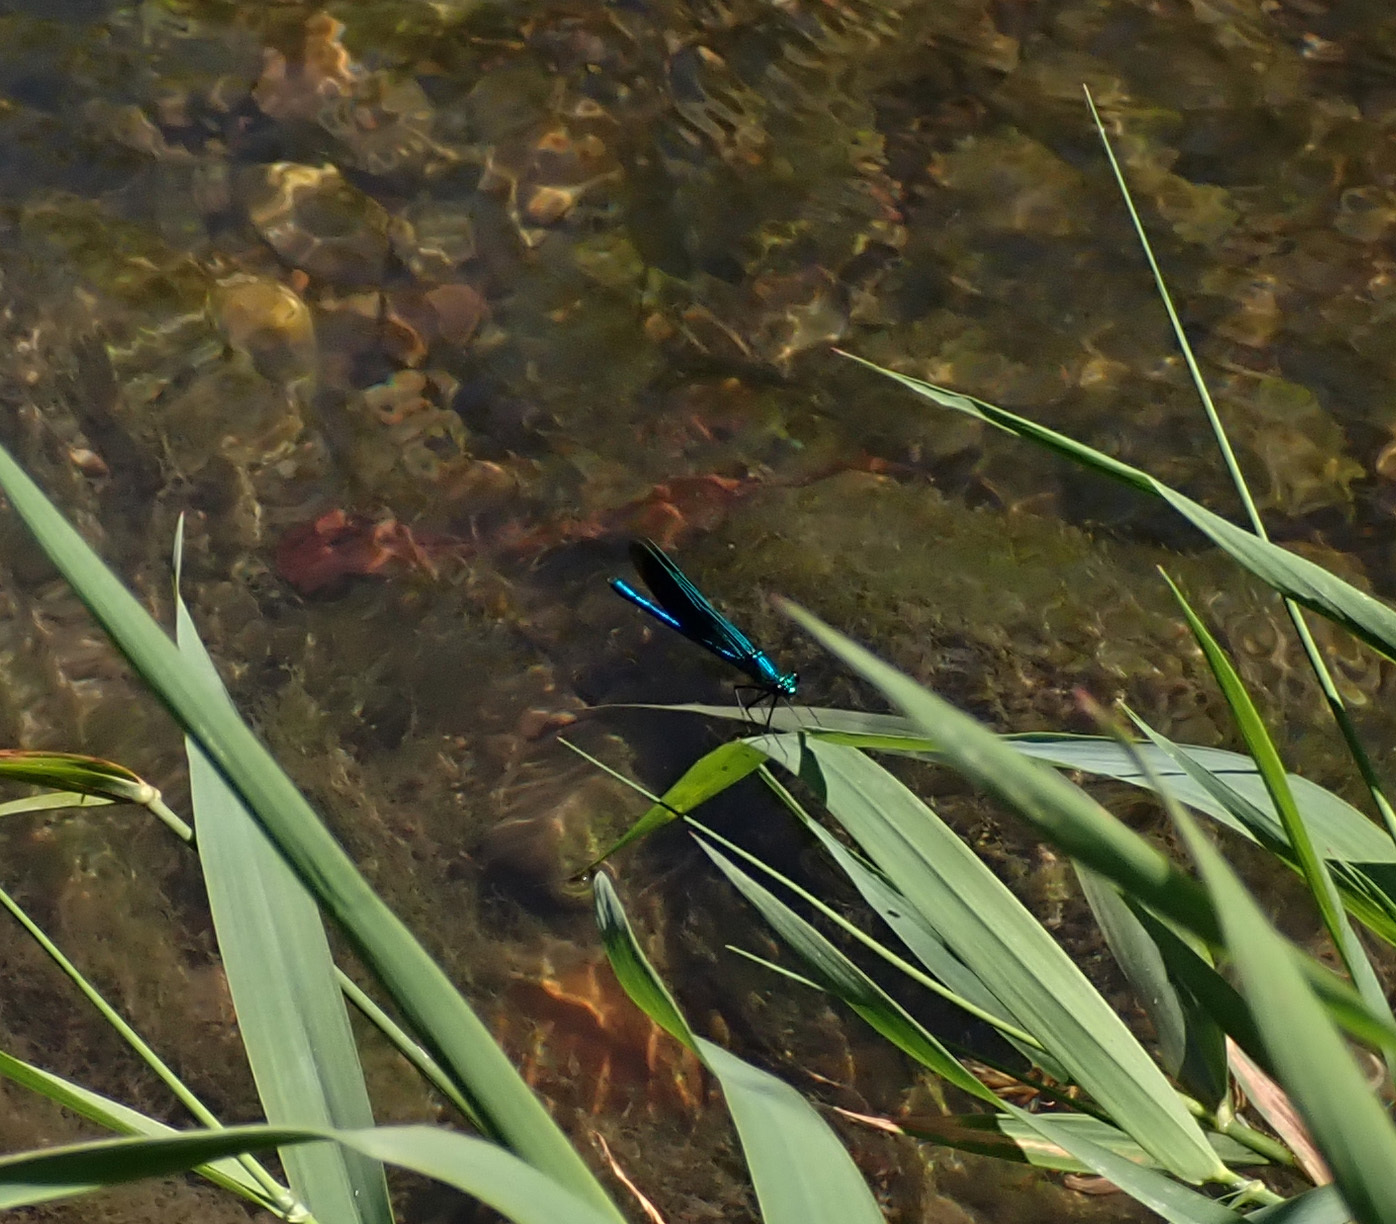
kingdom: Animalia
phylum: Arthropoda
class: Insecta
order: Odonata
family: Calopterygidae
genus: Calopteryx
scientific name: Calopteryx virgo
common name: Beautiful demoiselle
